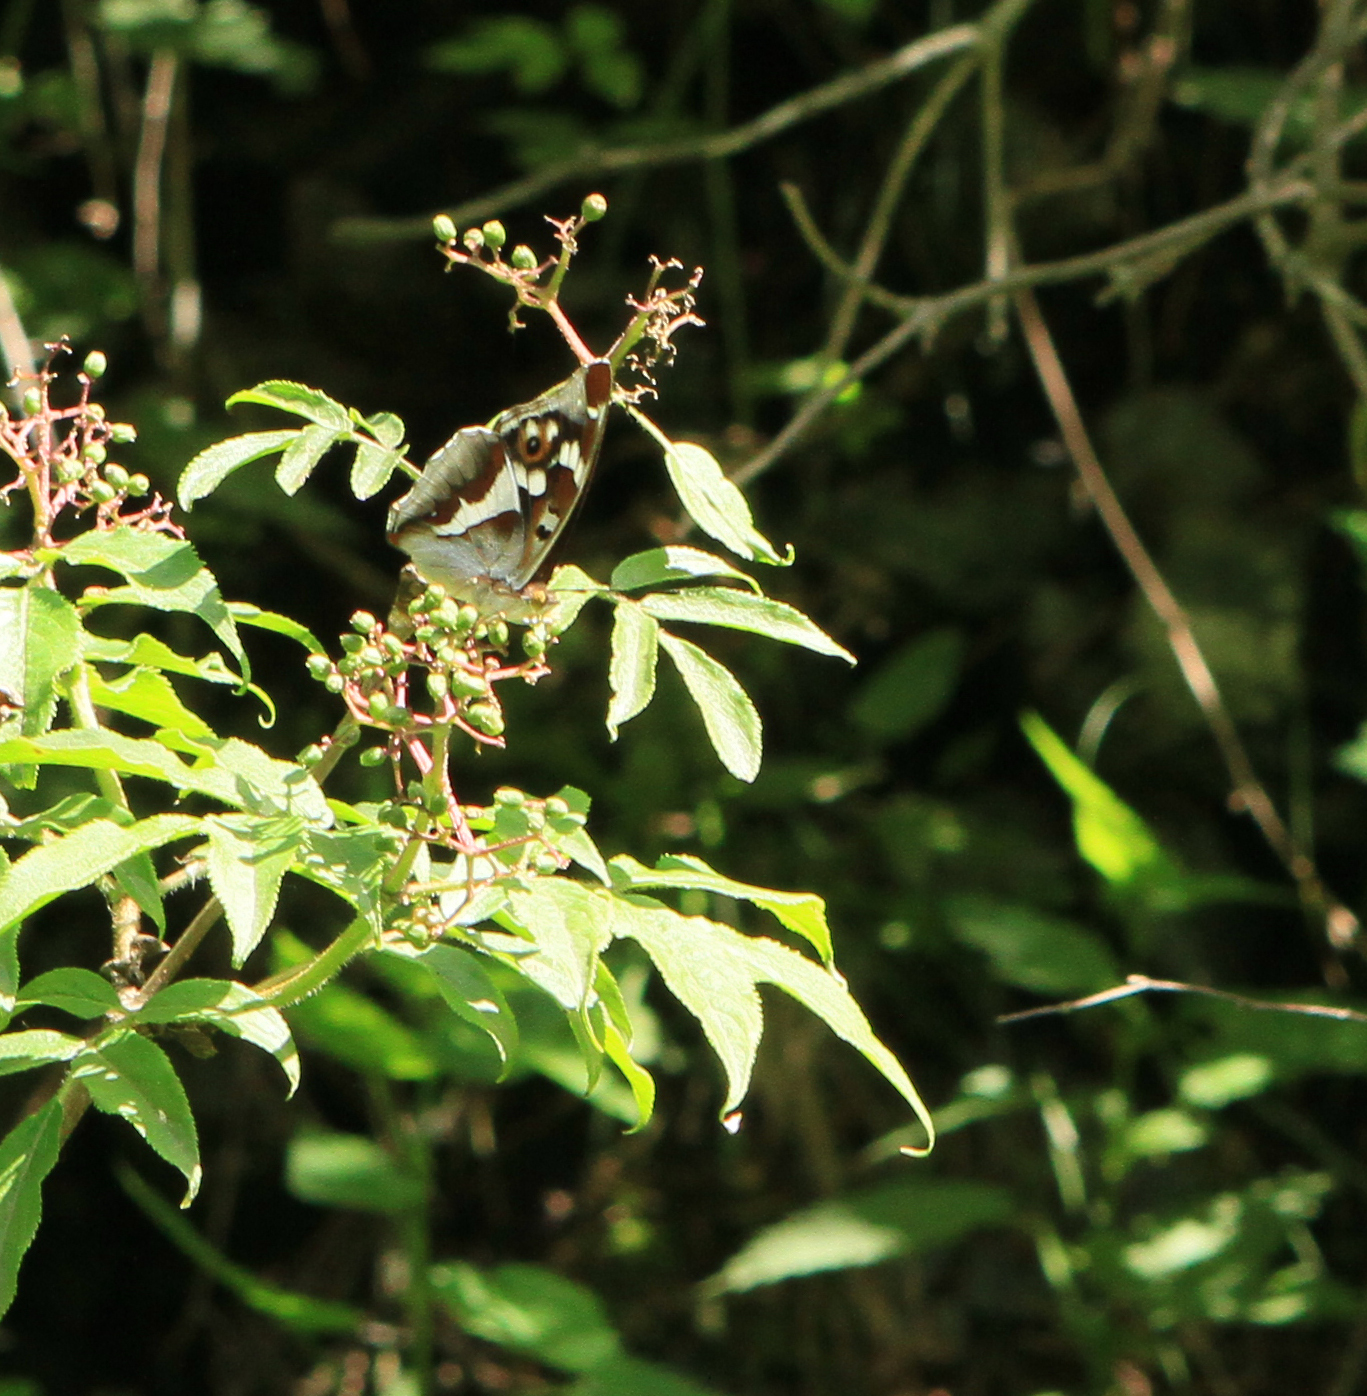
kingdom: Plantae
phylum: Tracheophyta
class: Magnoliopsida
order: Dipsacales
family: Viburnaceae
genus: Sambucus
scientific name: Sambucus sibirica
